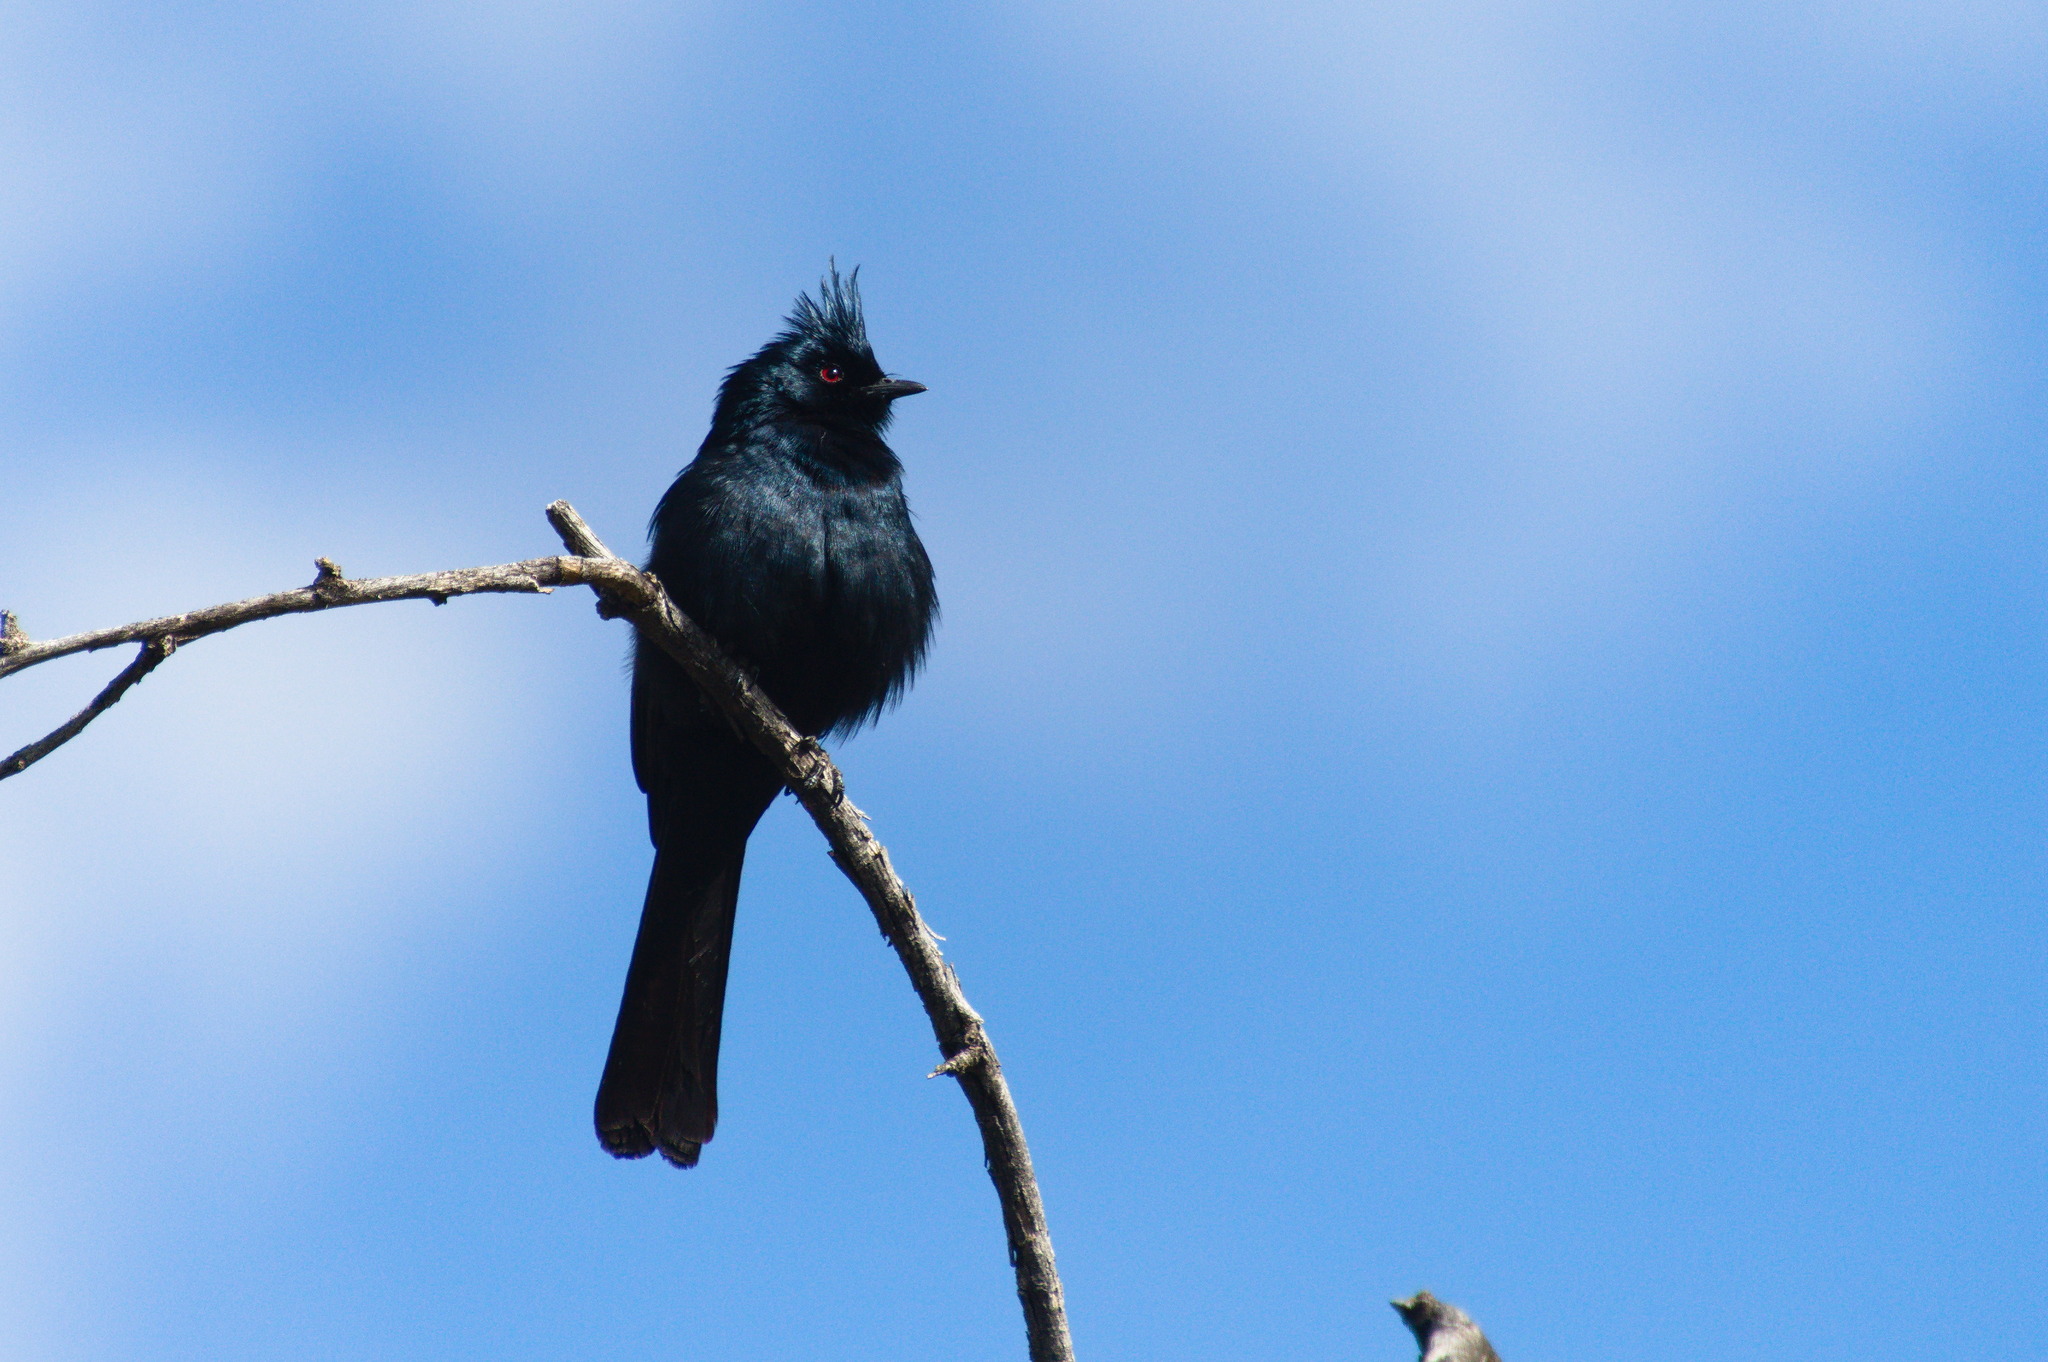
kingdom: Animalia
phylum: Chordata
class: Aves
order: Passeriformes
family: Ptilogonatidae
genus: Phainopepla
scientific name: Phainopepla nitens
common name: Phainopepla
